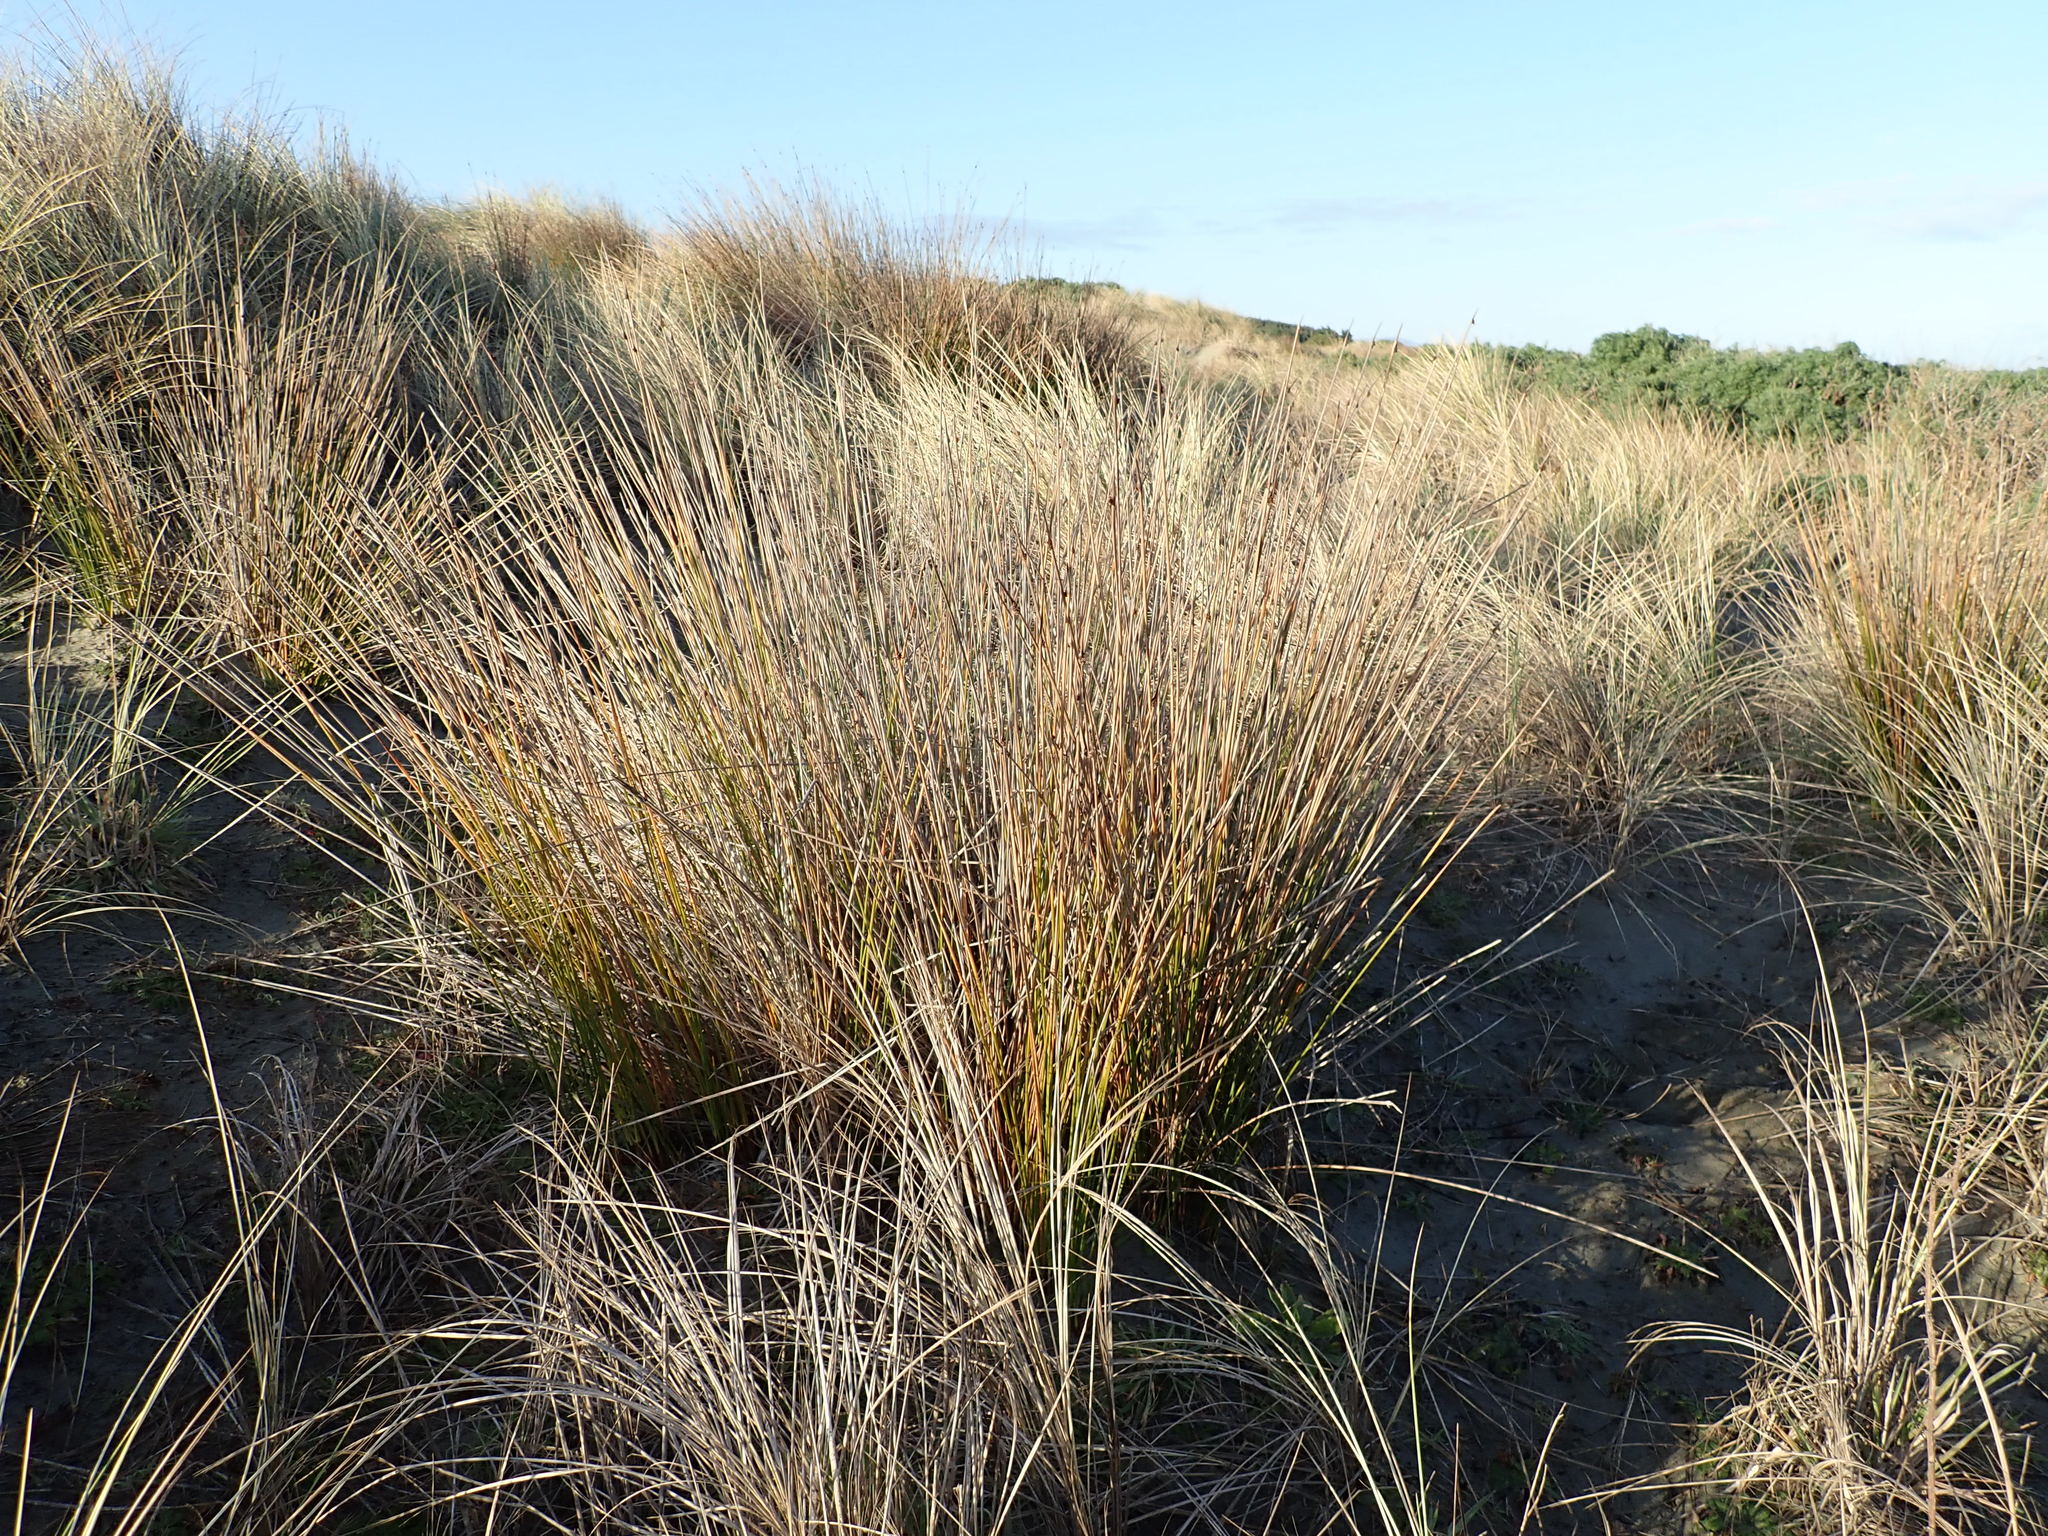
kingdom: Plantae
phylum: Tracheophyta
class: Liliopsida
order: Poales
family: Cyperaceae
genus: Ficinia
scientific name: Ficinia nodosa
